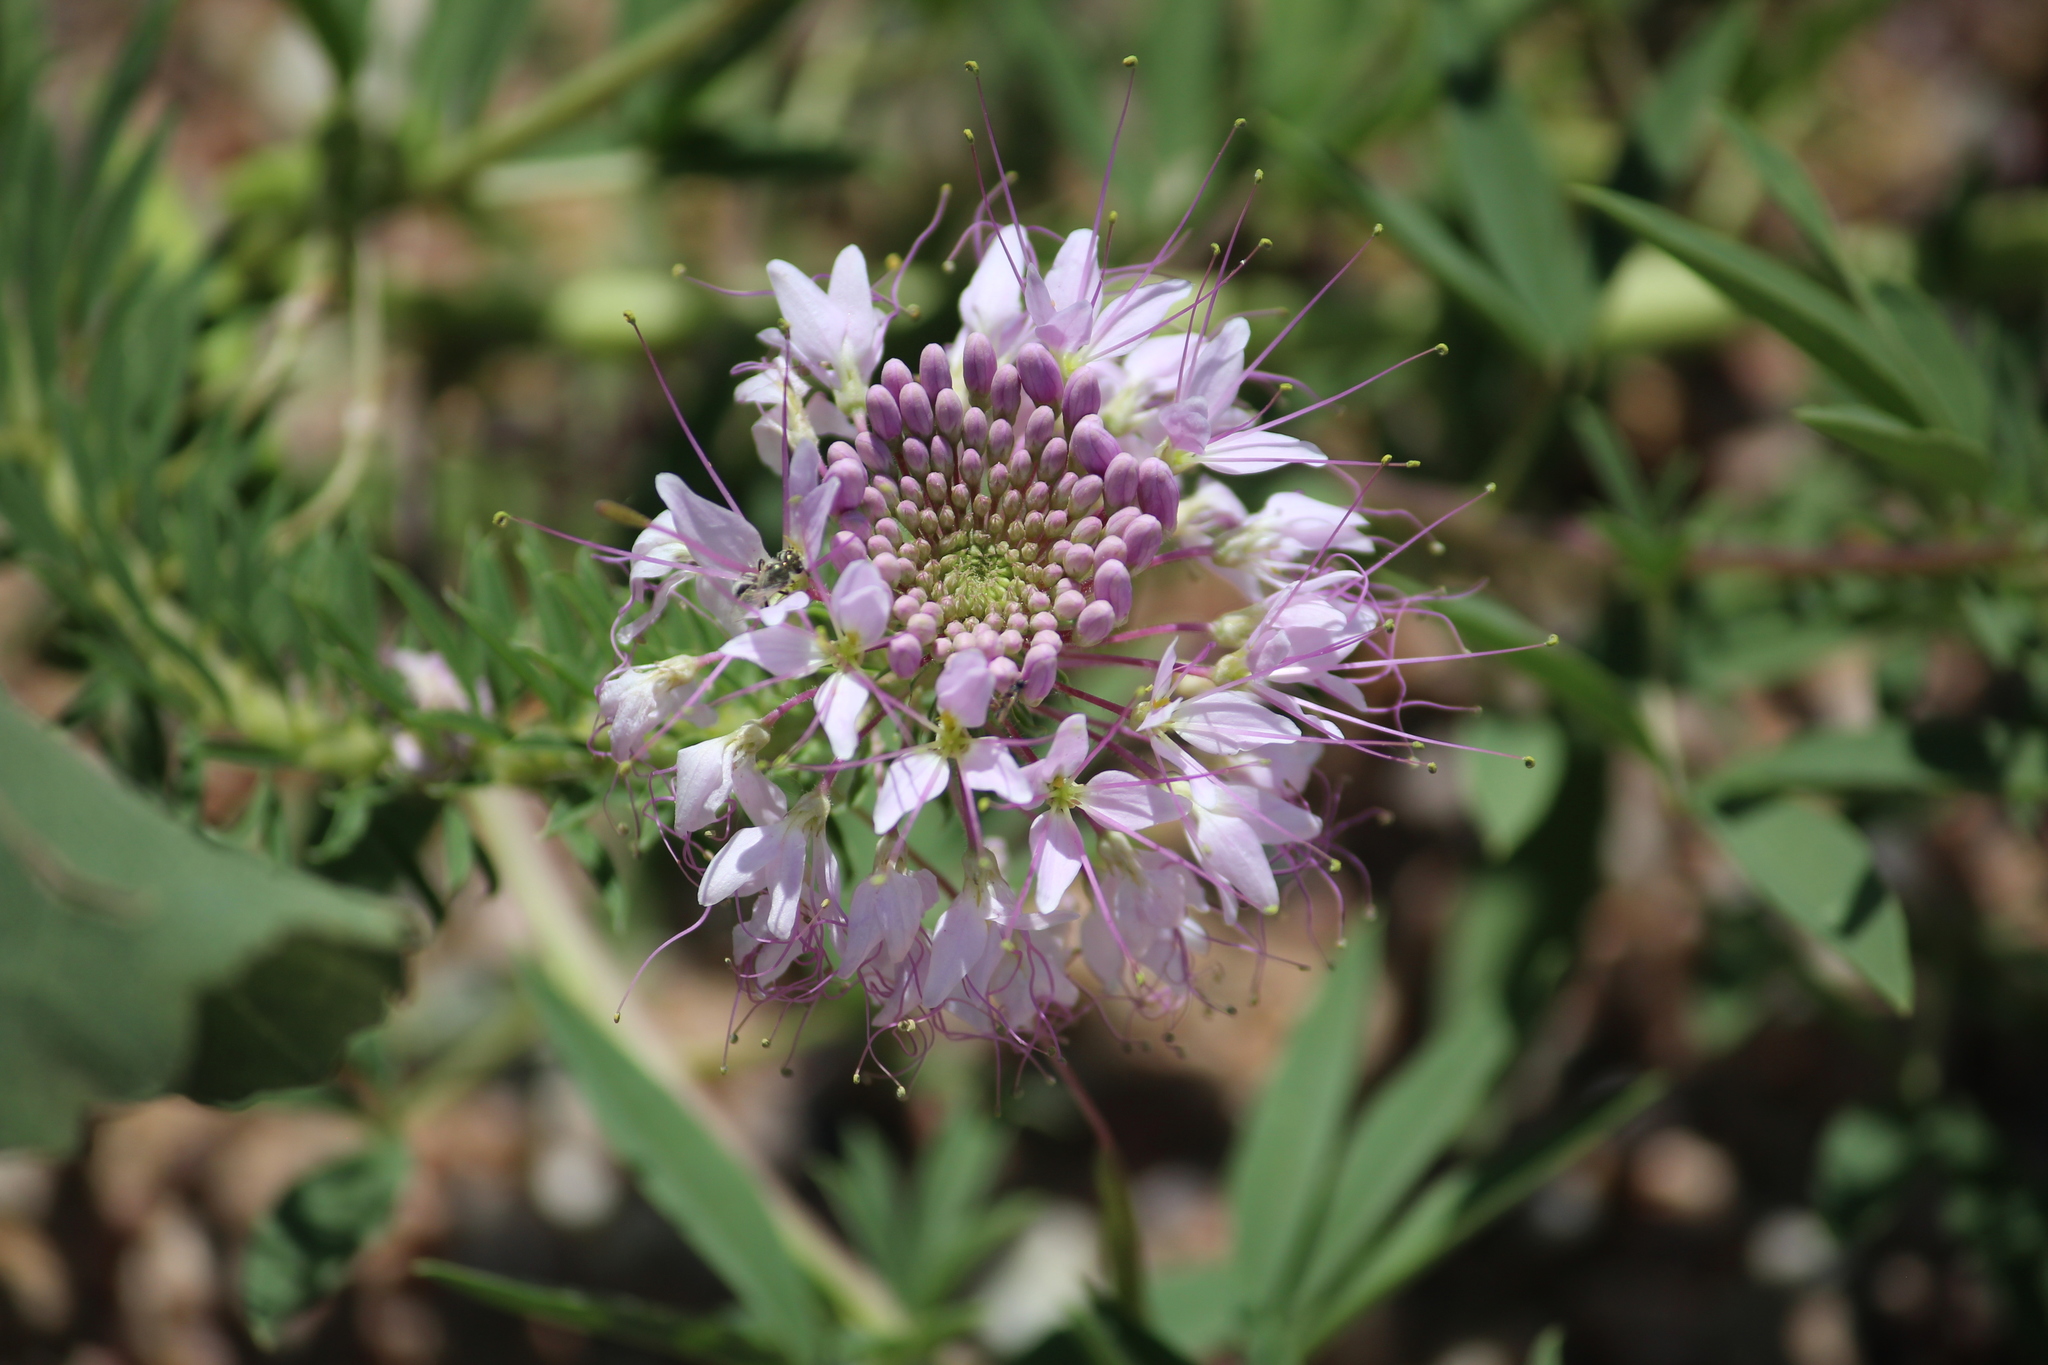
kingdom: Plantae
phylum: Tracheophyta
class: Magnoliopsida
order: Brassicales
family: Cleomaceae
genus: Cleomella
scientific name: Cleomella serrulata
